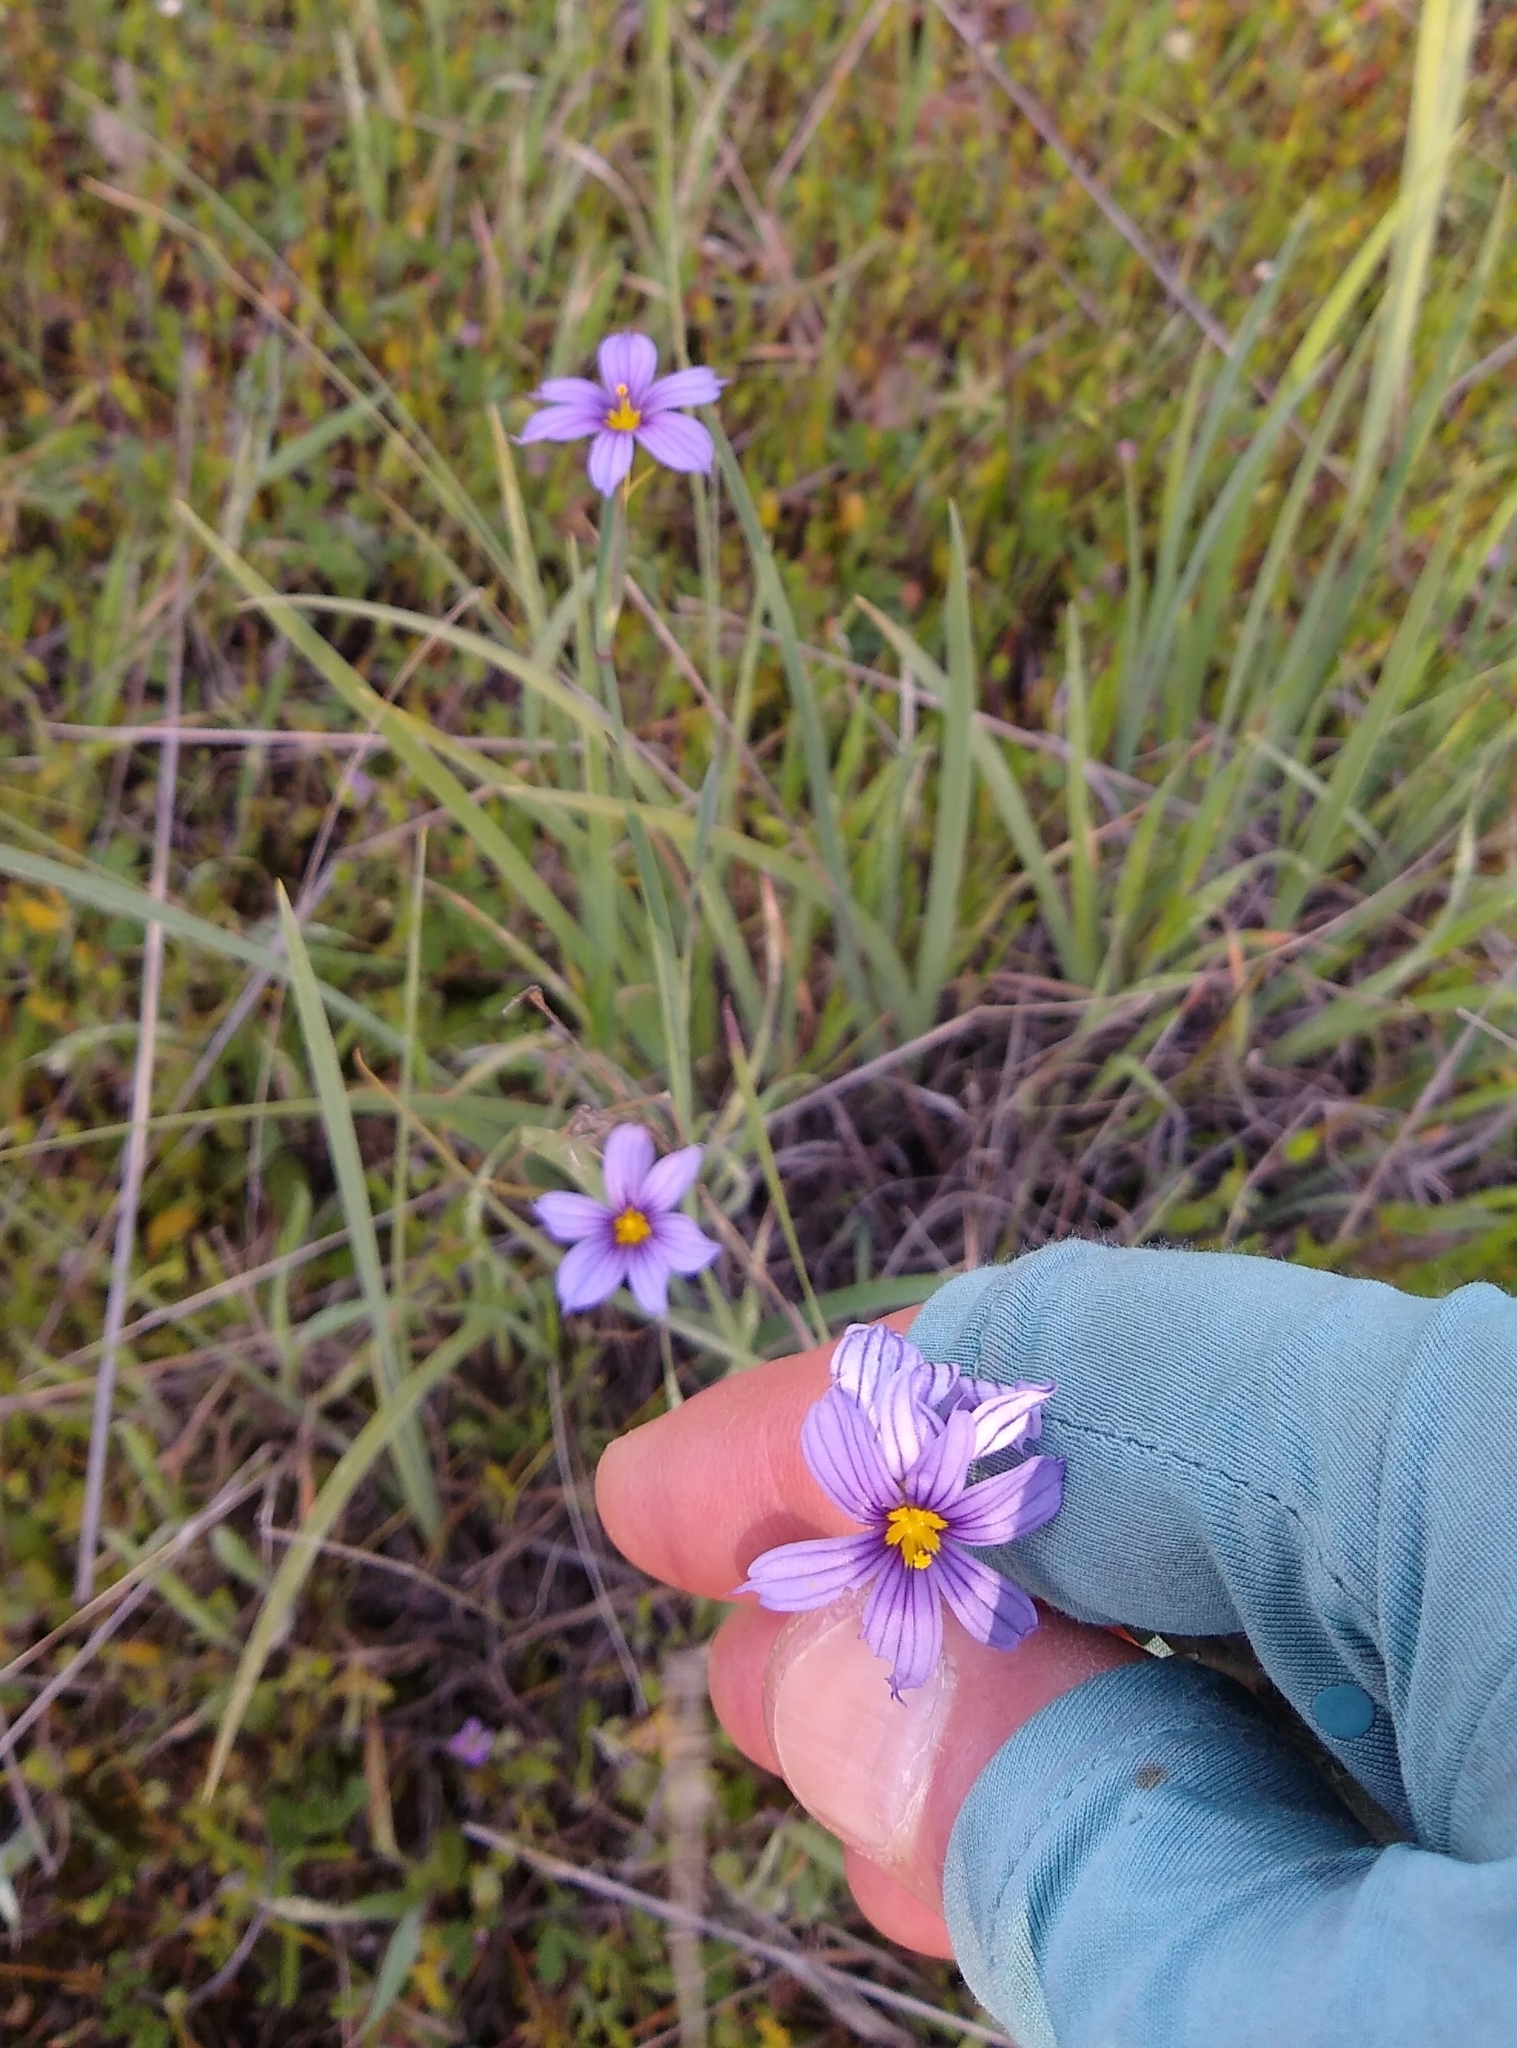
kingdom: Plantae
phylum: Tracheophyta
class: Liliopsida
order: Asparagales
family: Iridaceae
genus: Sisyrinchium
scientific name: Sisyrinchium bellum
